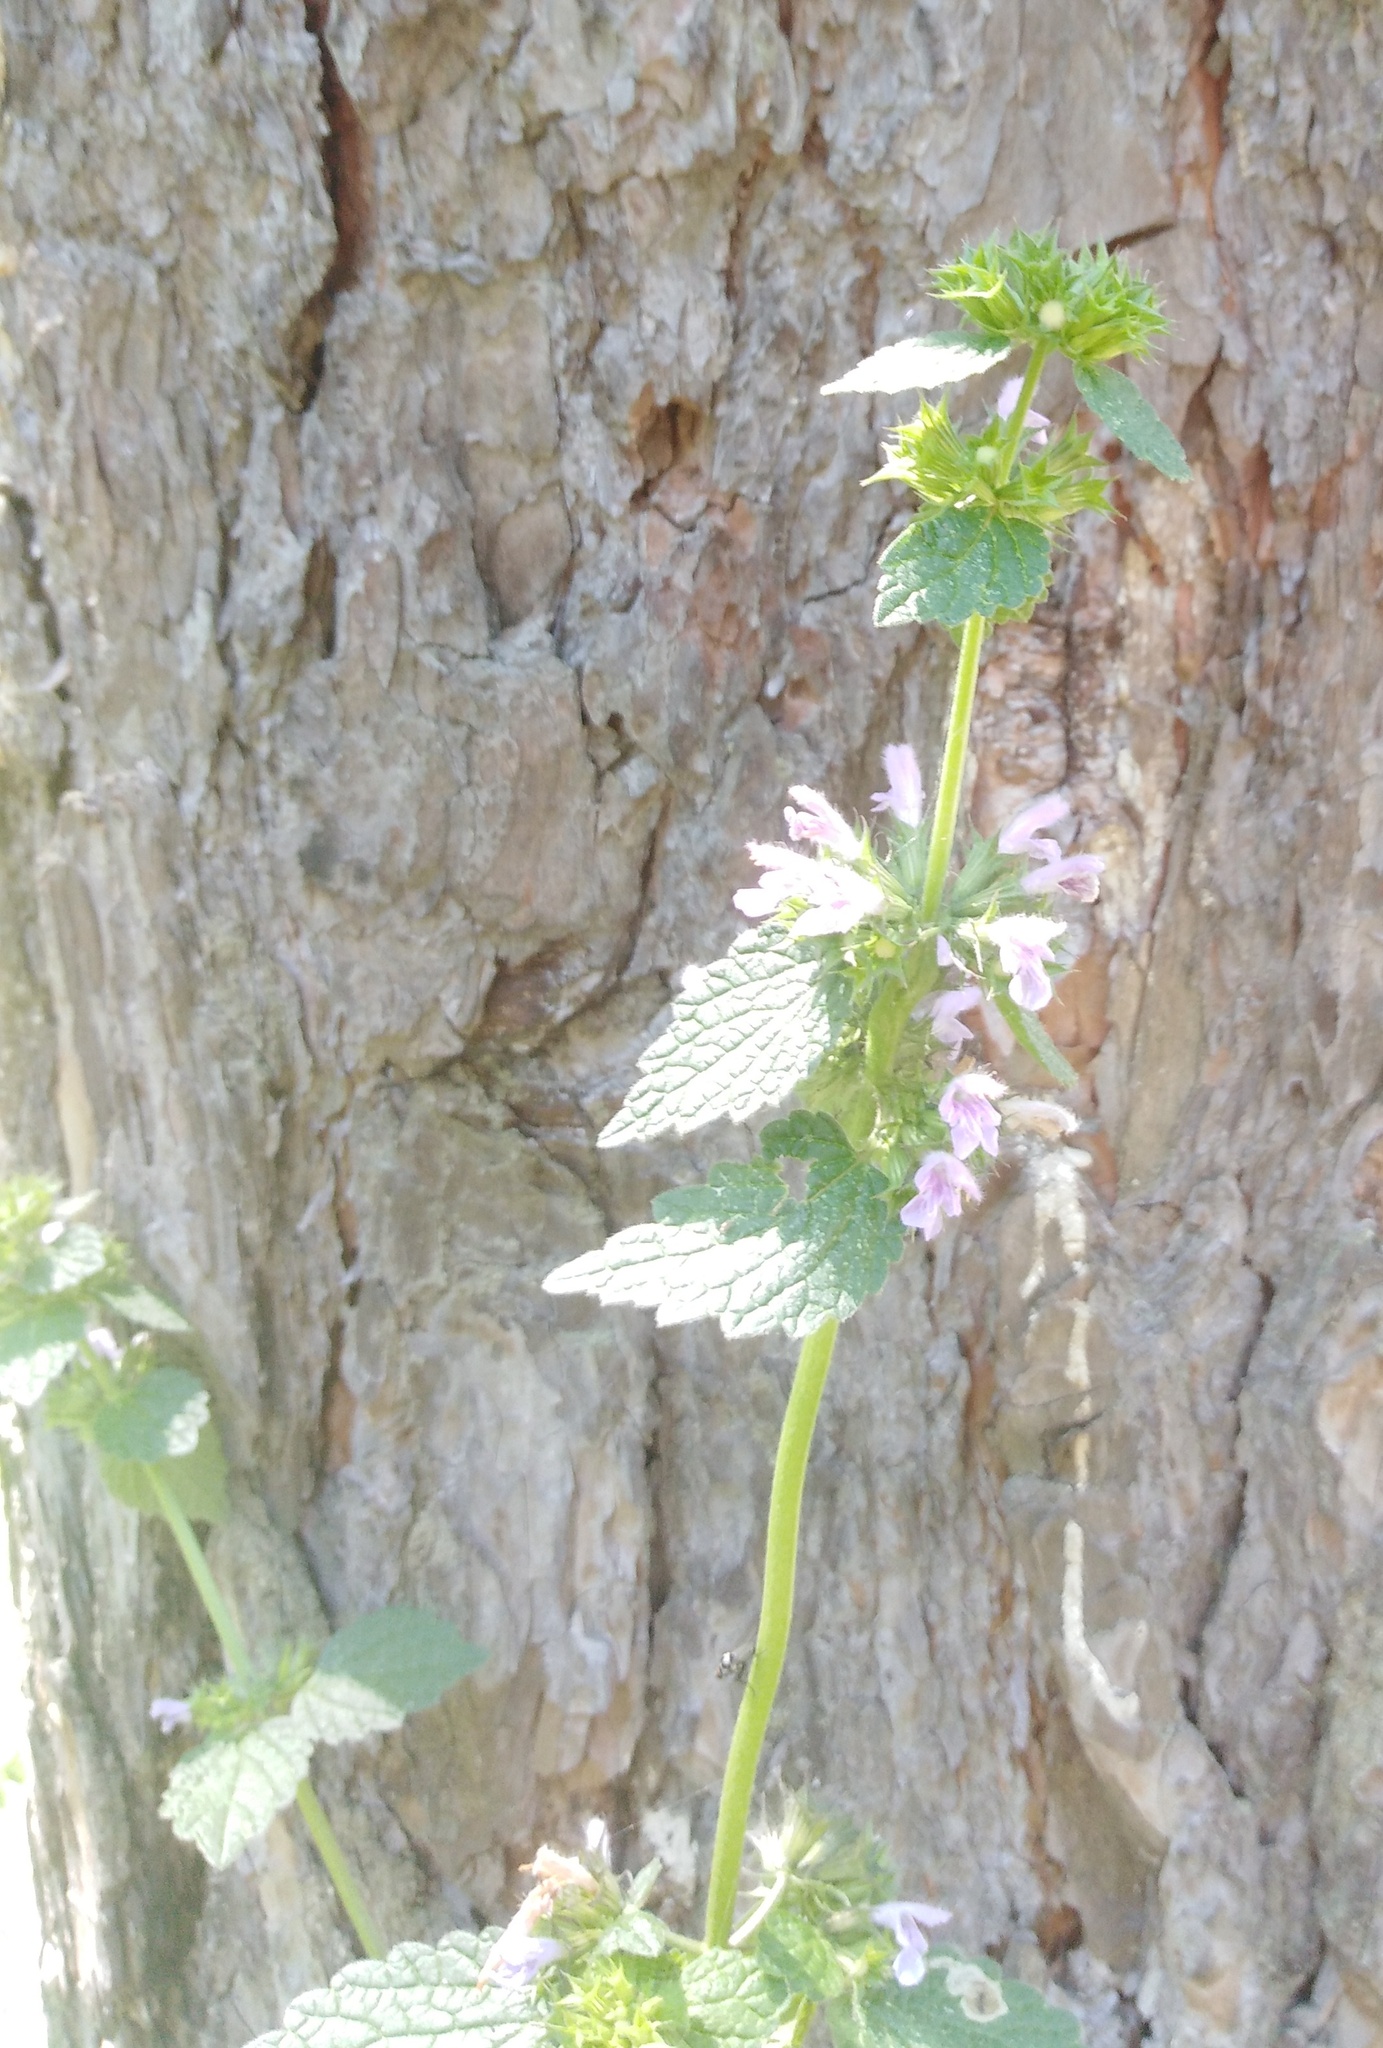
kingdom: Plantae
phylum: Tracheophyta
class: Magnoliopsida
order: Lamiales
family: Lamiaceae
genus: Ballota
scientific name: Ballota nigra
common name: Black horehound
